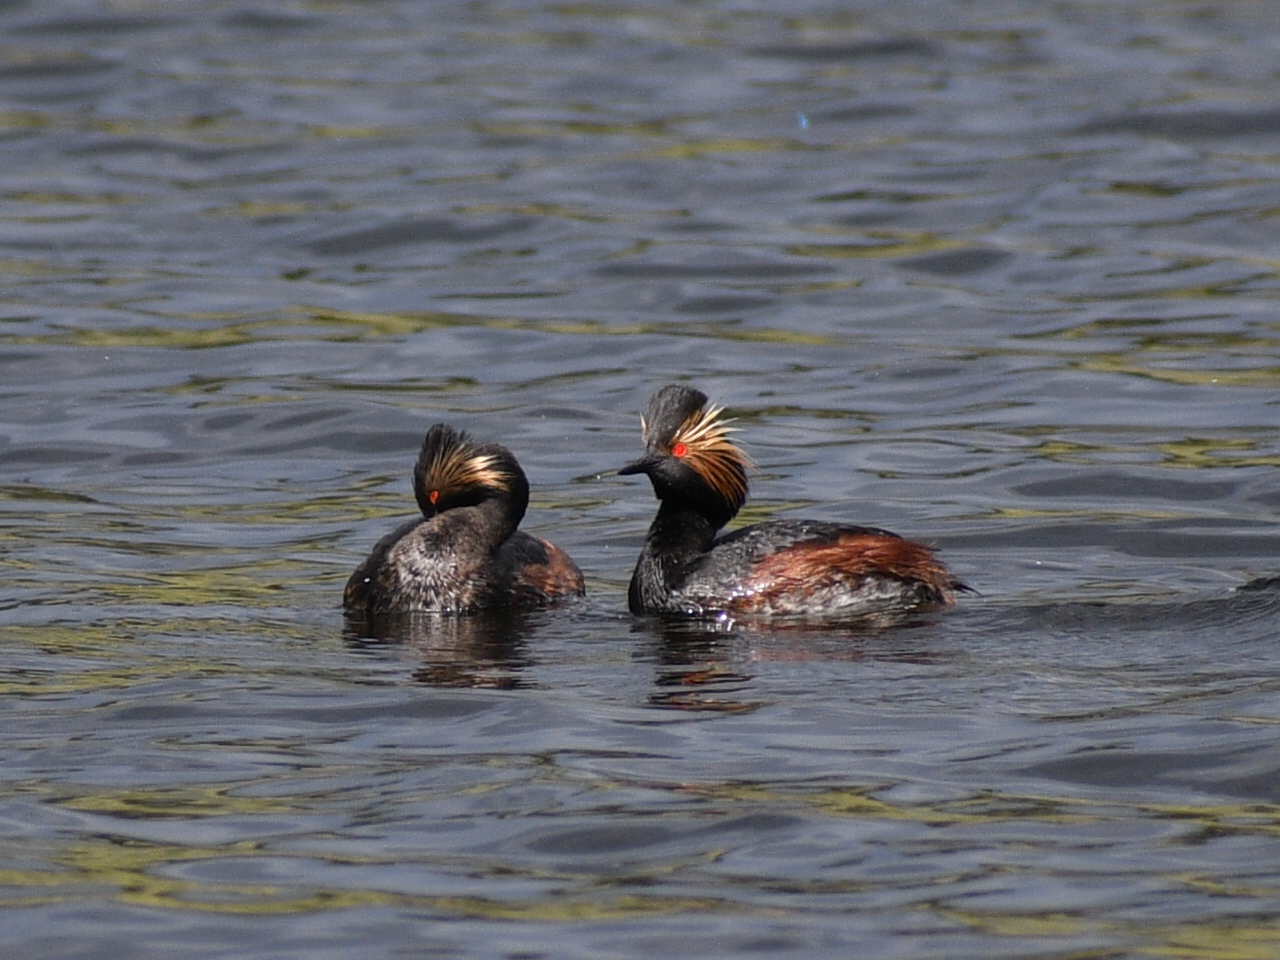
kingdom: Animalia
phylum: Chordata
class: Aves
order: Podicipediformes
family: Podicipedidae
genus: Podiceps
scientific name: Podiceps nigricollis
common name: Black-necked grebe
